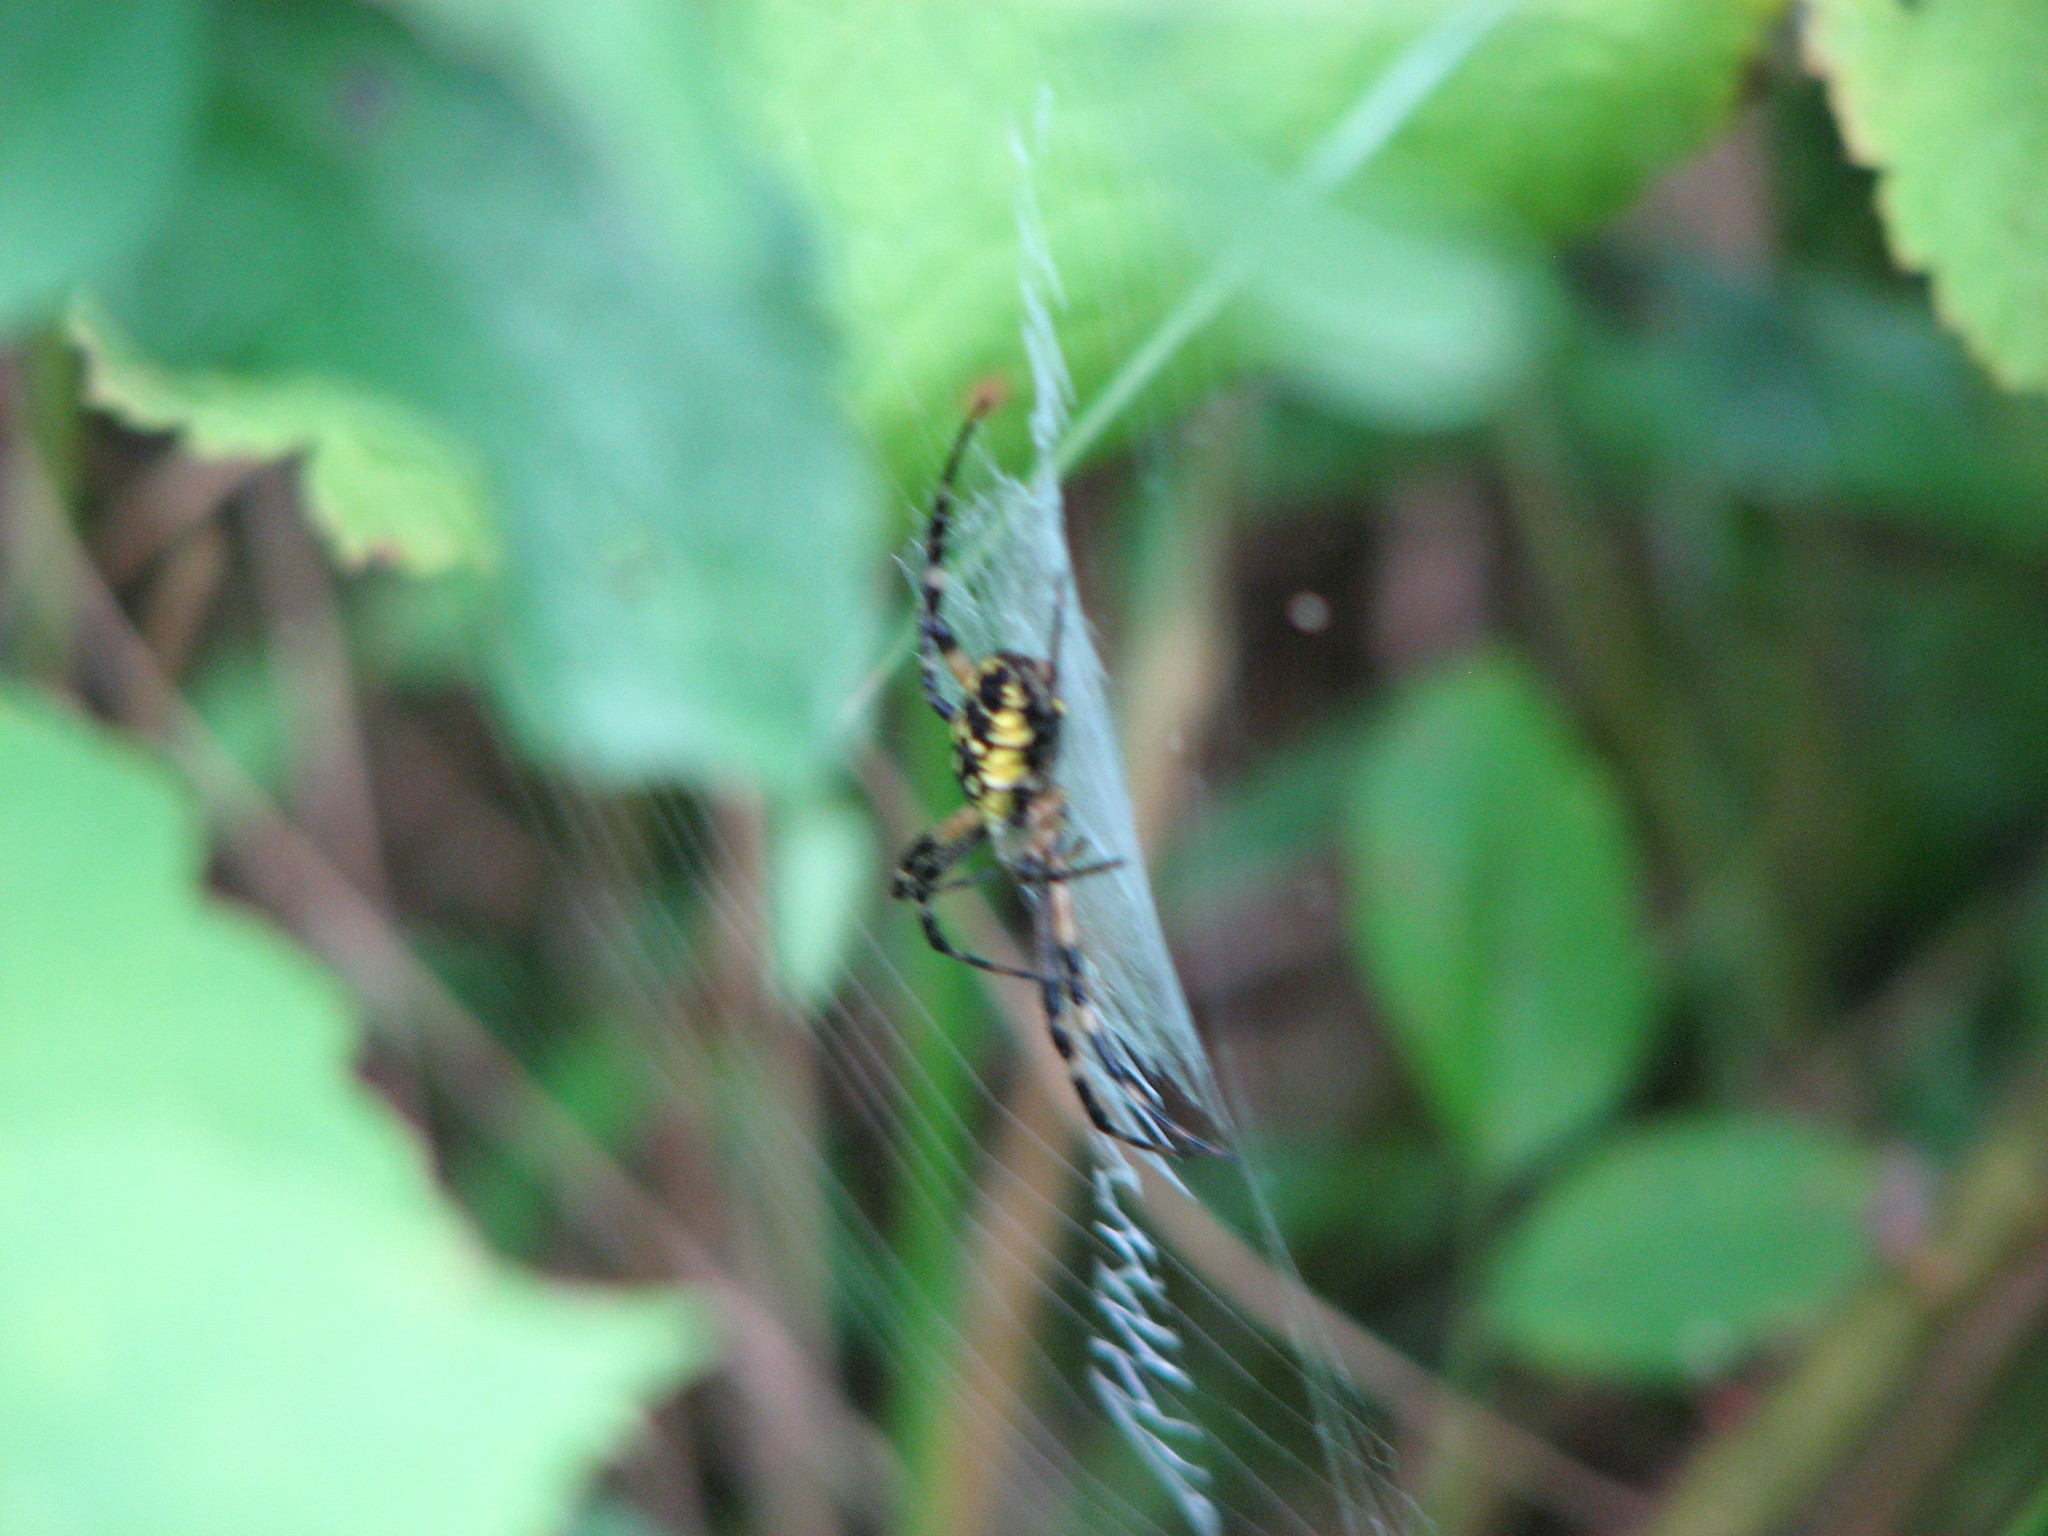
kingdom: Animalia
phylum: Arthropoda
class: Arachnida
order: Araneae
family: Araneidae
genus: Argiope
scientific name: Argiope aurantia
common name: Orb weavers
